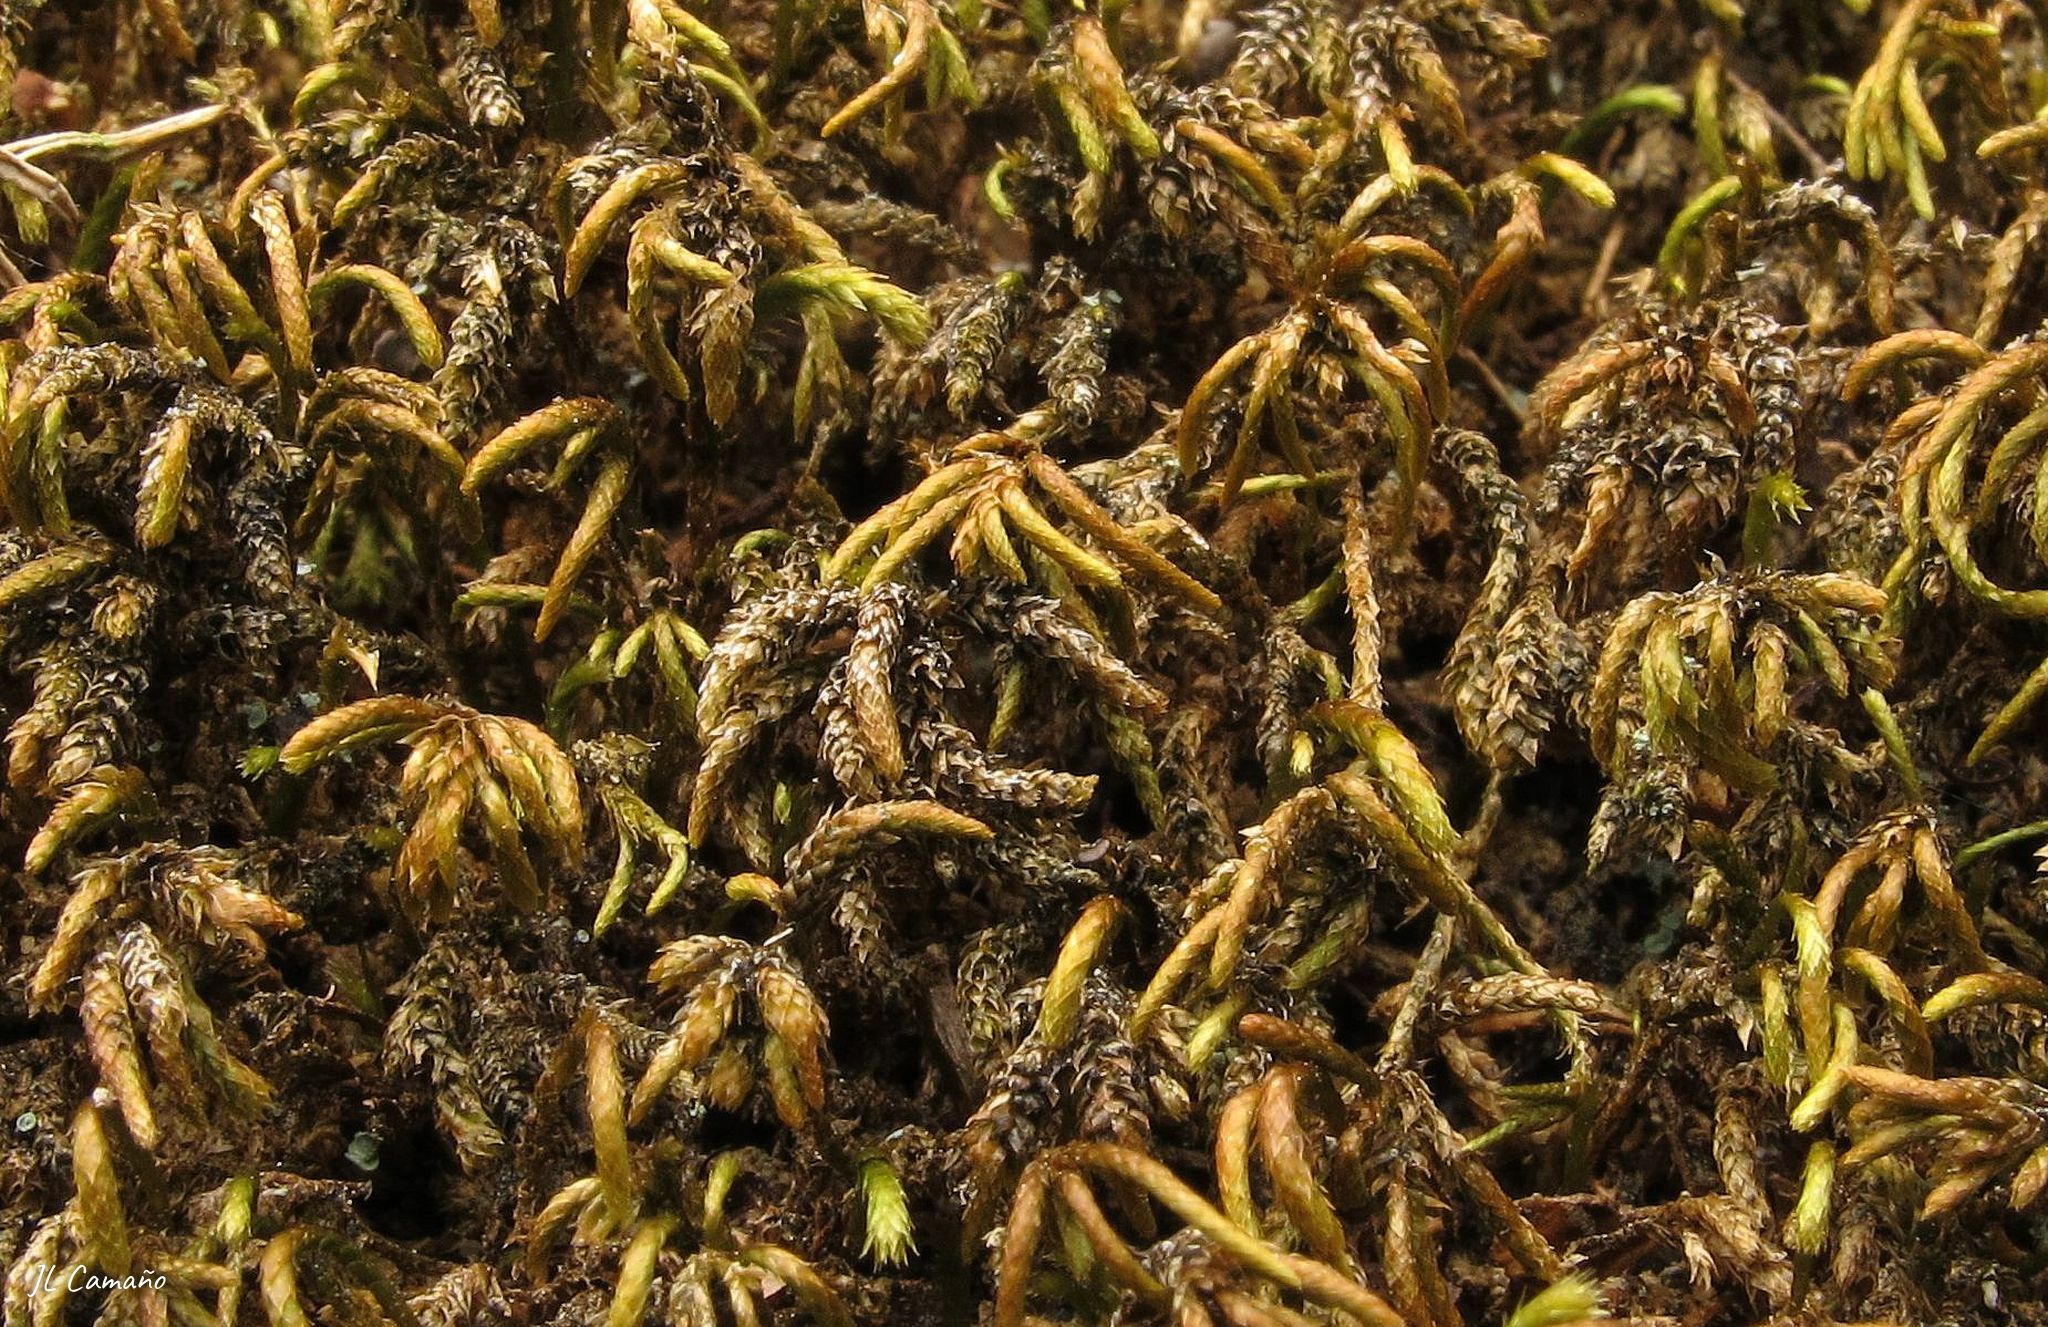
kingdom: Plantae
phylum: Bryophyta
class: Bryopsida
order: Hypnales
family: Lembophyllaceae
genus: Nogopterium
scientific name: Nogopterium gracile
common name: Bird's-foot wing-moss
